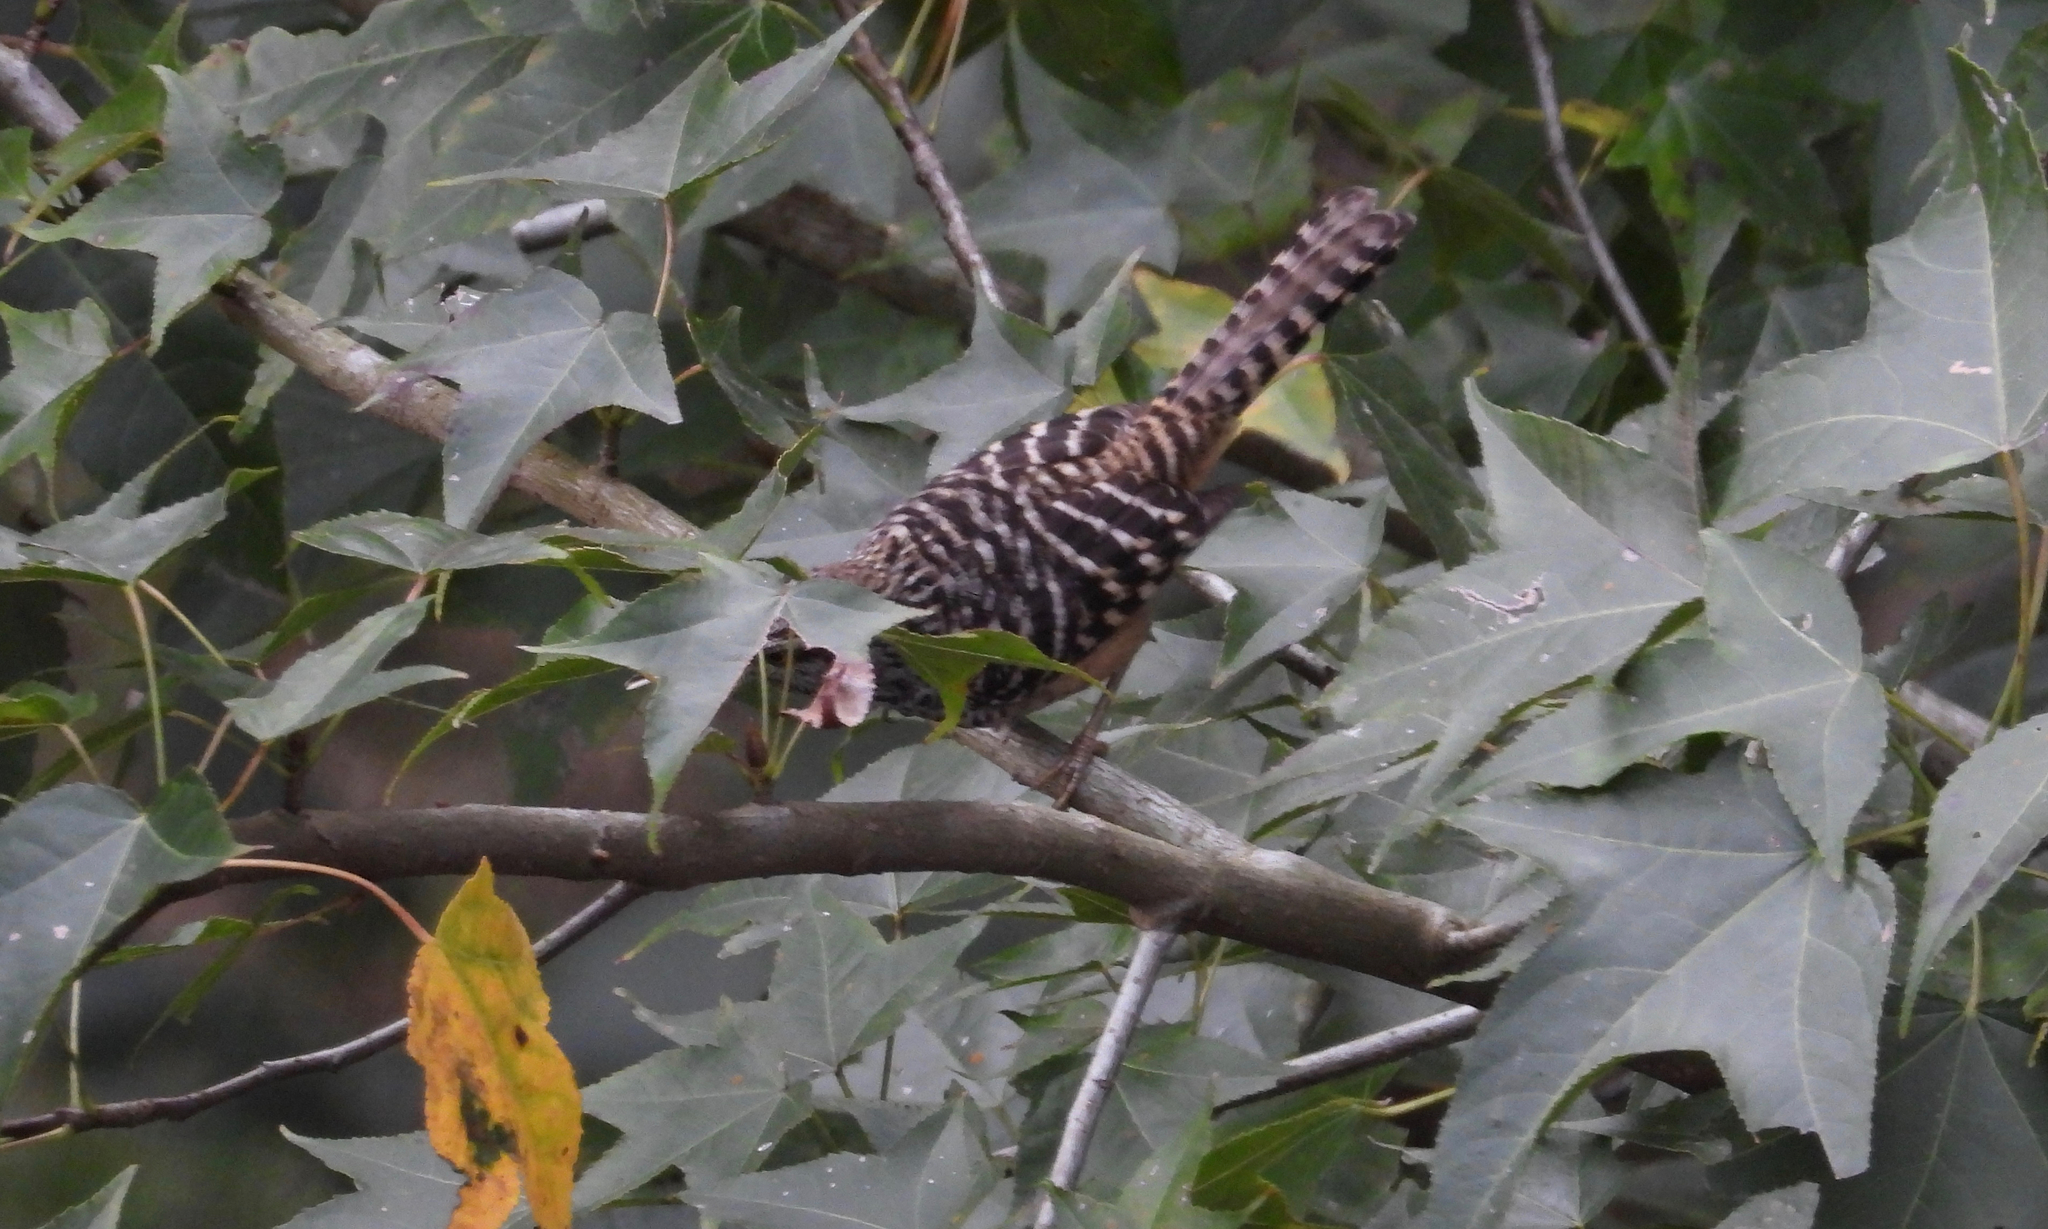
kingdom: Animalia
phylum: Chordata
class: Aves
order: Passeriformes
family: Troglodytidae
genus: Campylorhynchus
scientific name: Campylorhynchus zonatus
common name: Band-backed wren
